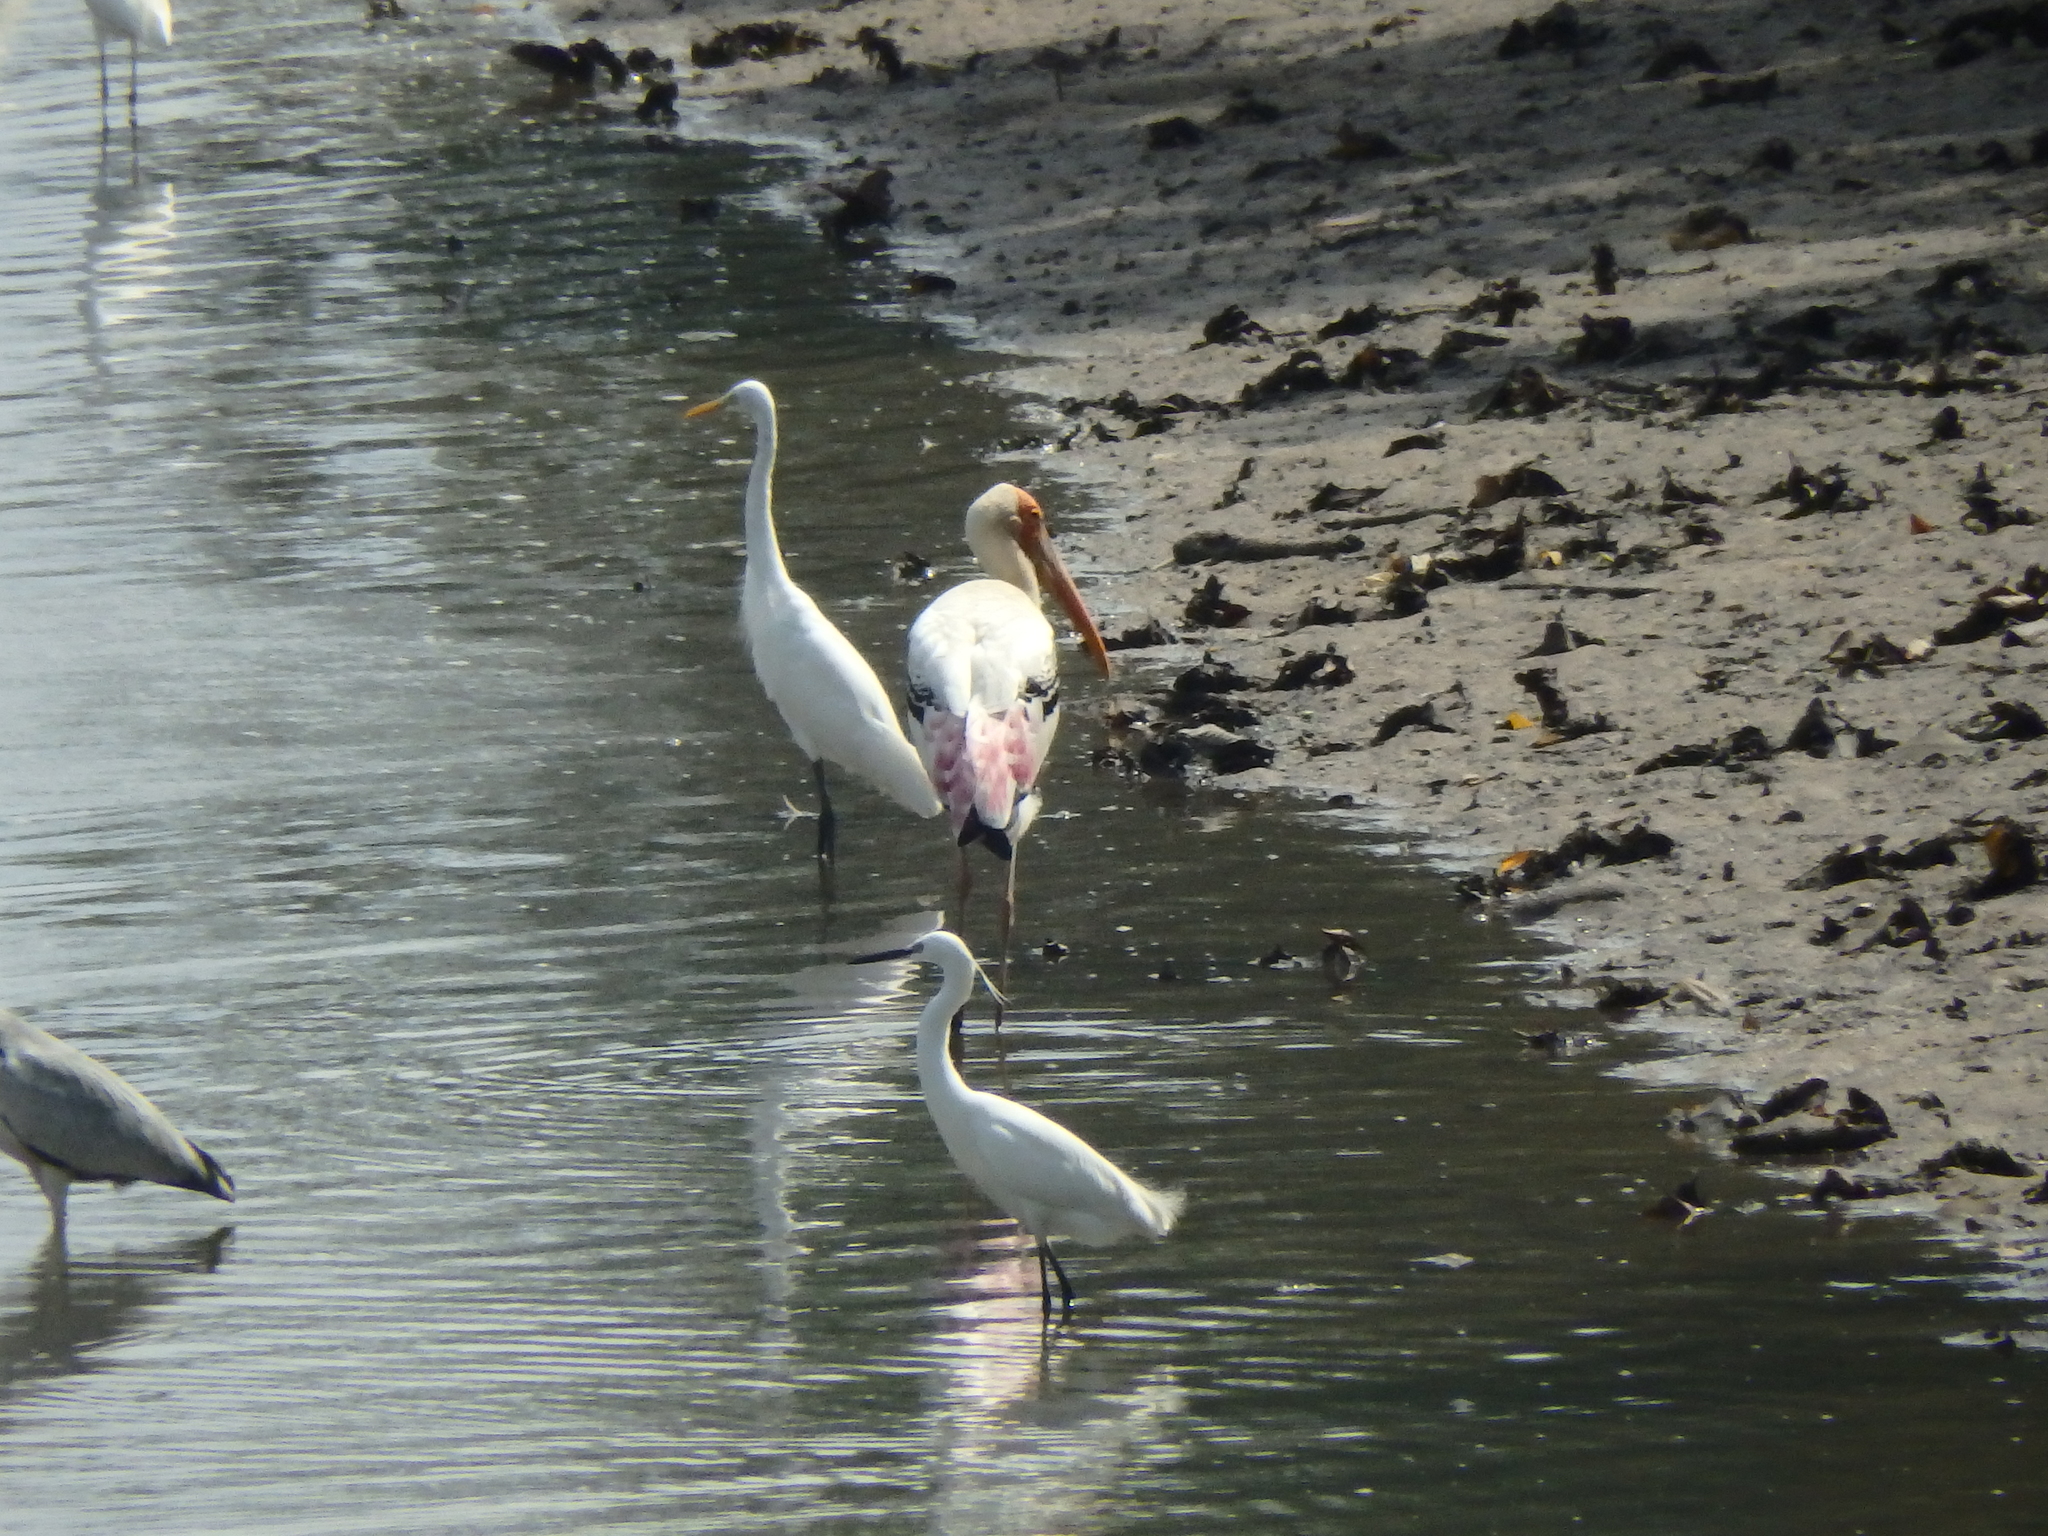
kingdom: Animalia
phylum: Chordata
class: Aves
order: Ciconiiformes
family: Ciconiidae
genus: Mycteria
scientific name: Mycteria leucocephala
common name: Painted stork
